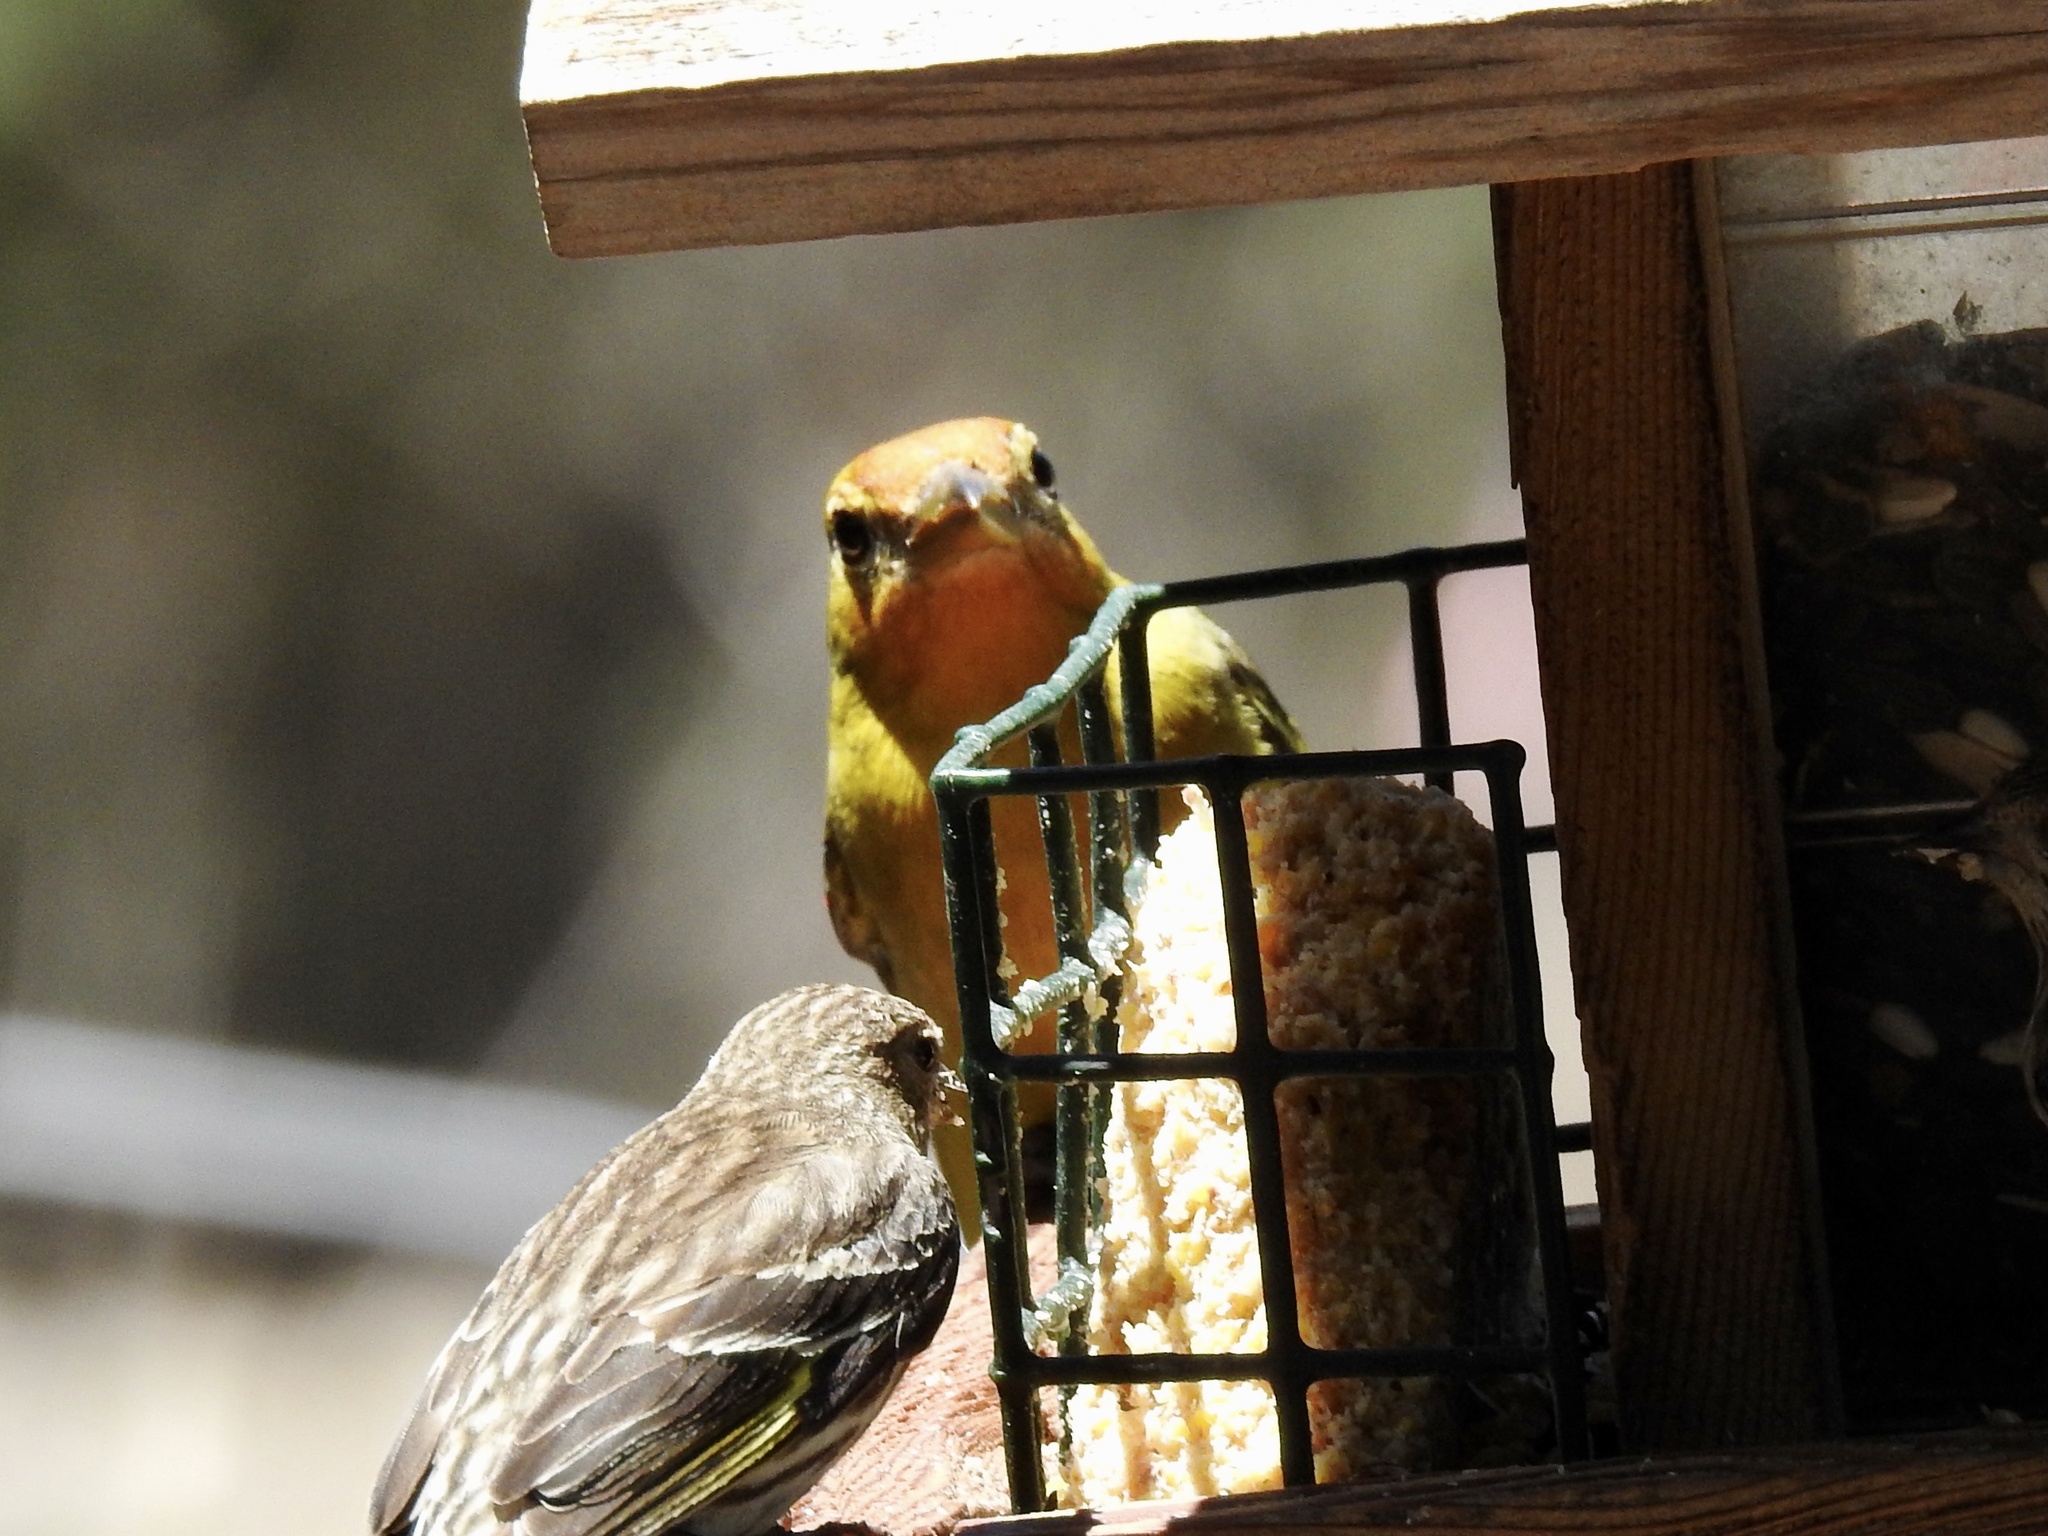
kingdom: Animalia
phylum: Chordata
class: Aves
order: Passeriformes
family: Cardinalidae
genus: Piranga
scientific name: Piranga ludoviciana
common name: Western tanager
